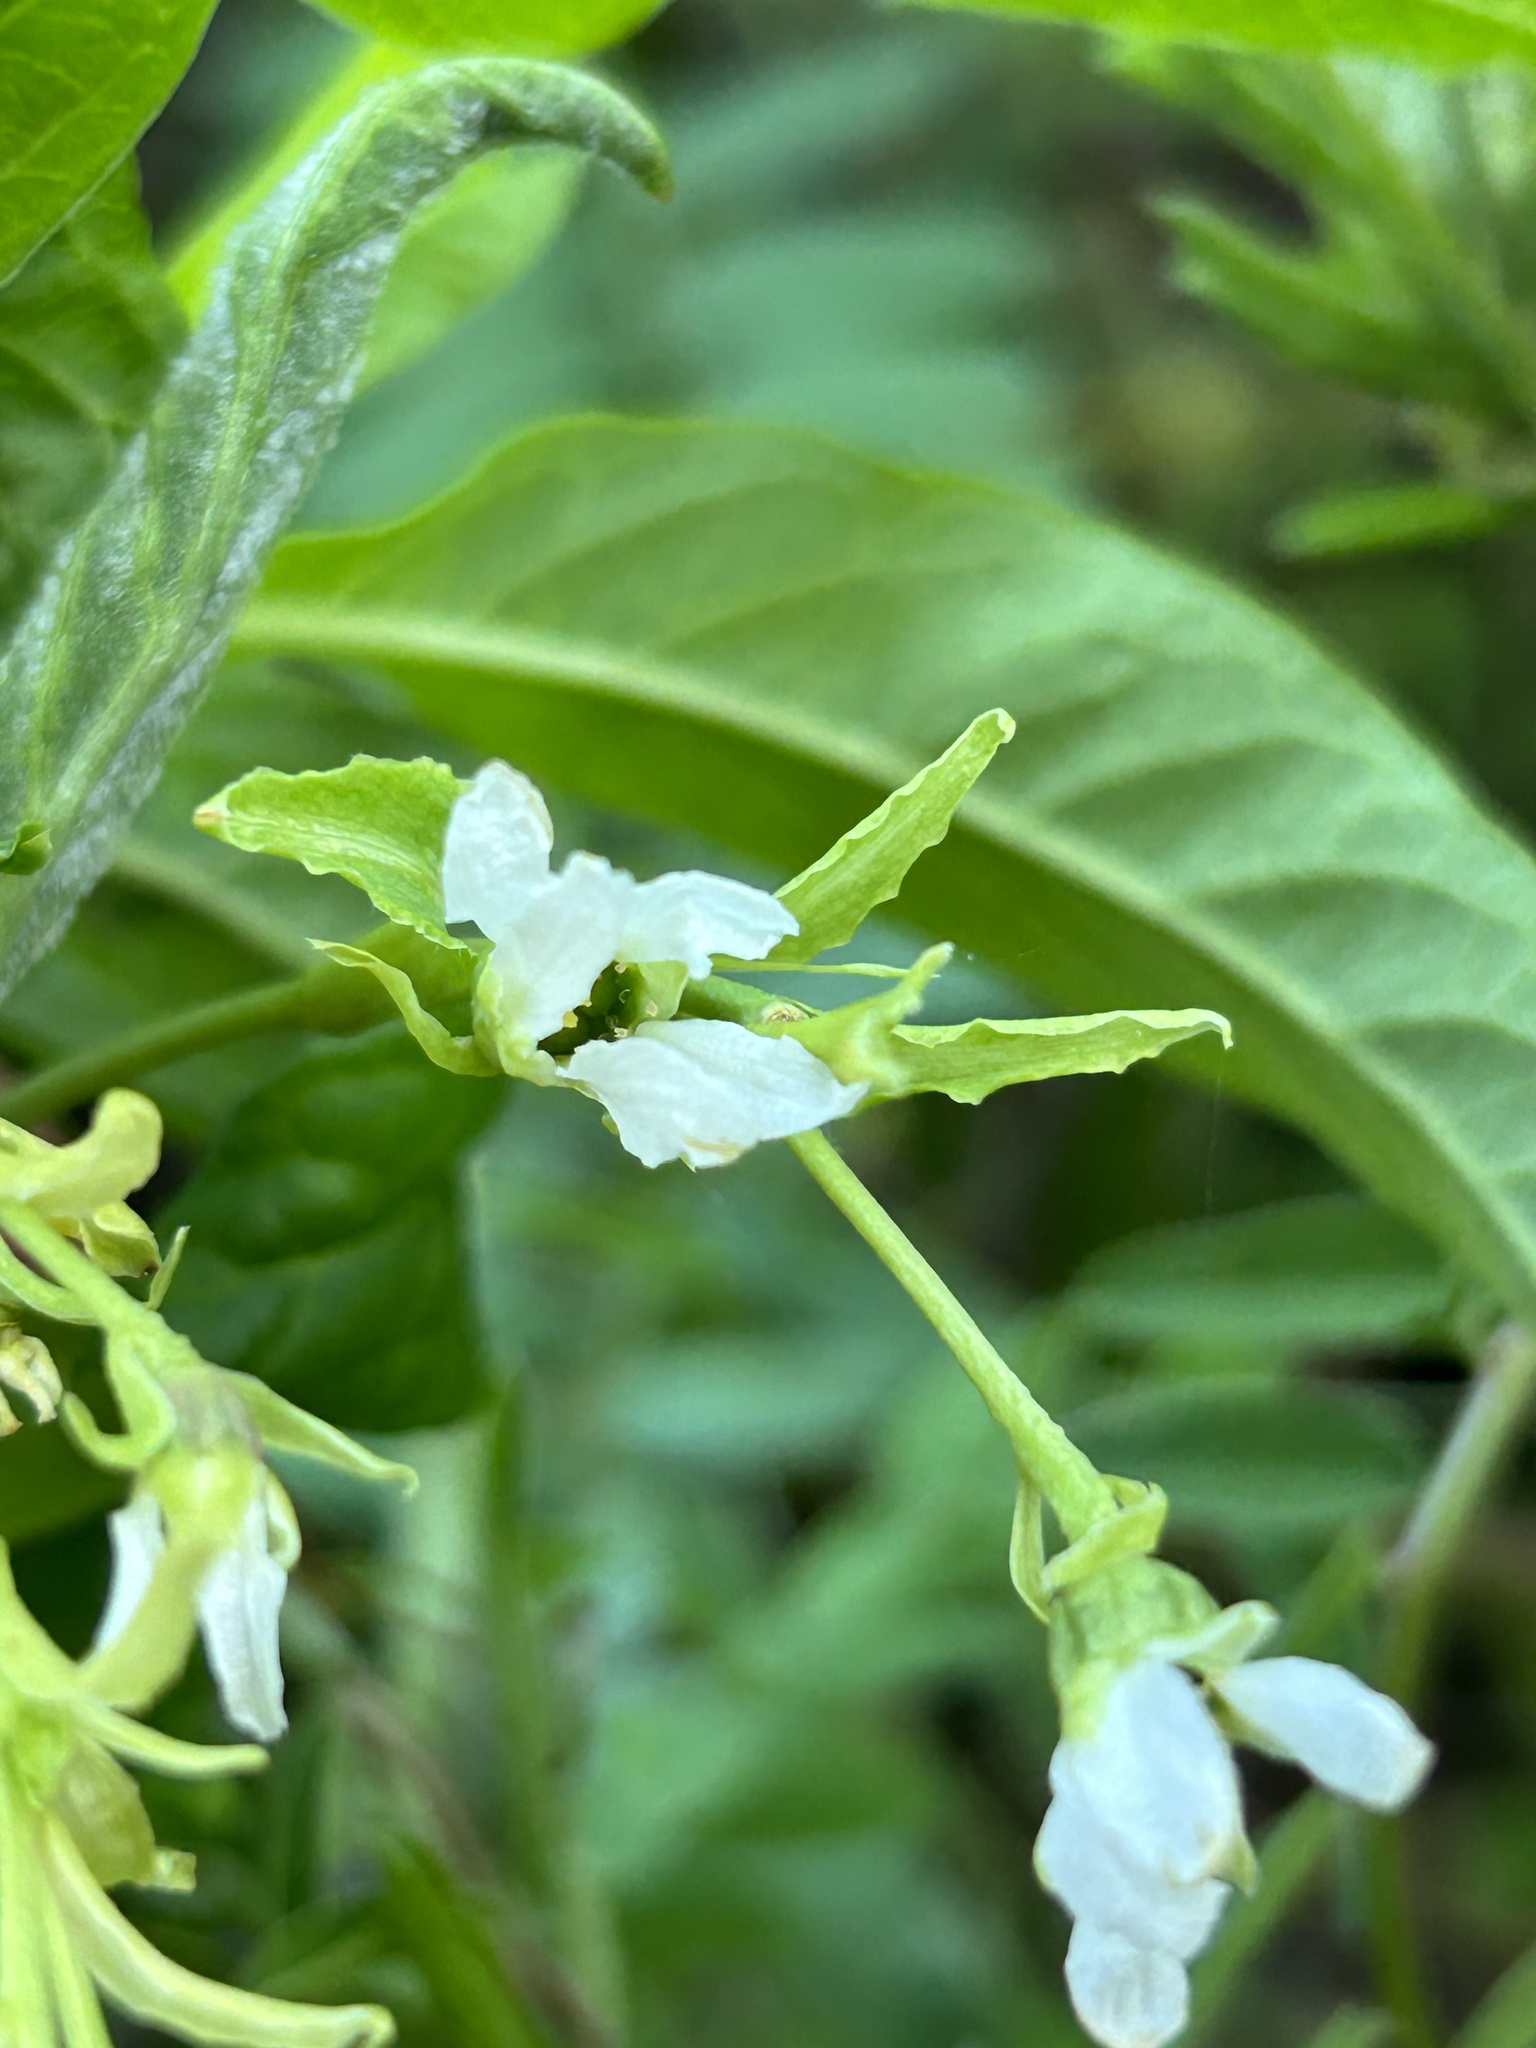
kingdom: Plantae
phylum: Tracheophyta
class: Magnoliopsida
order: Rosales
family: Rosaceae
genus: Oemleria
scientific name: Oemleria cerasiformis
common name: Osoberry
